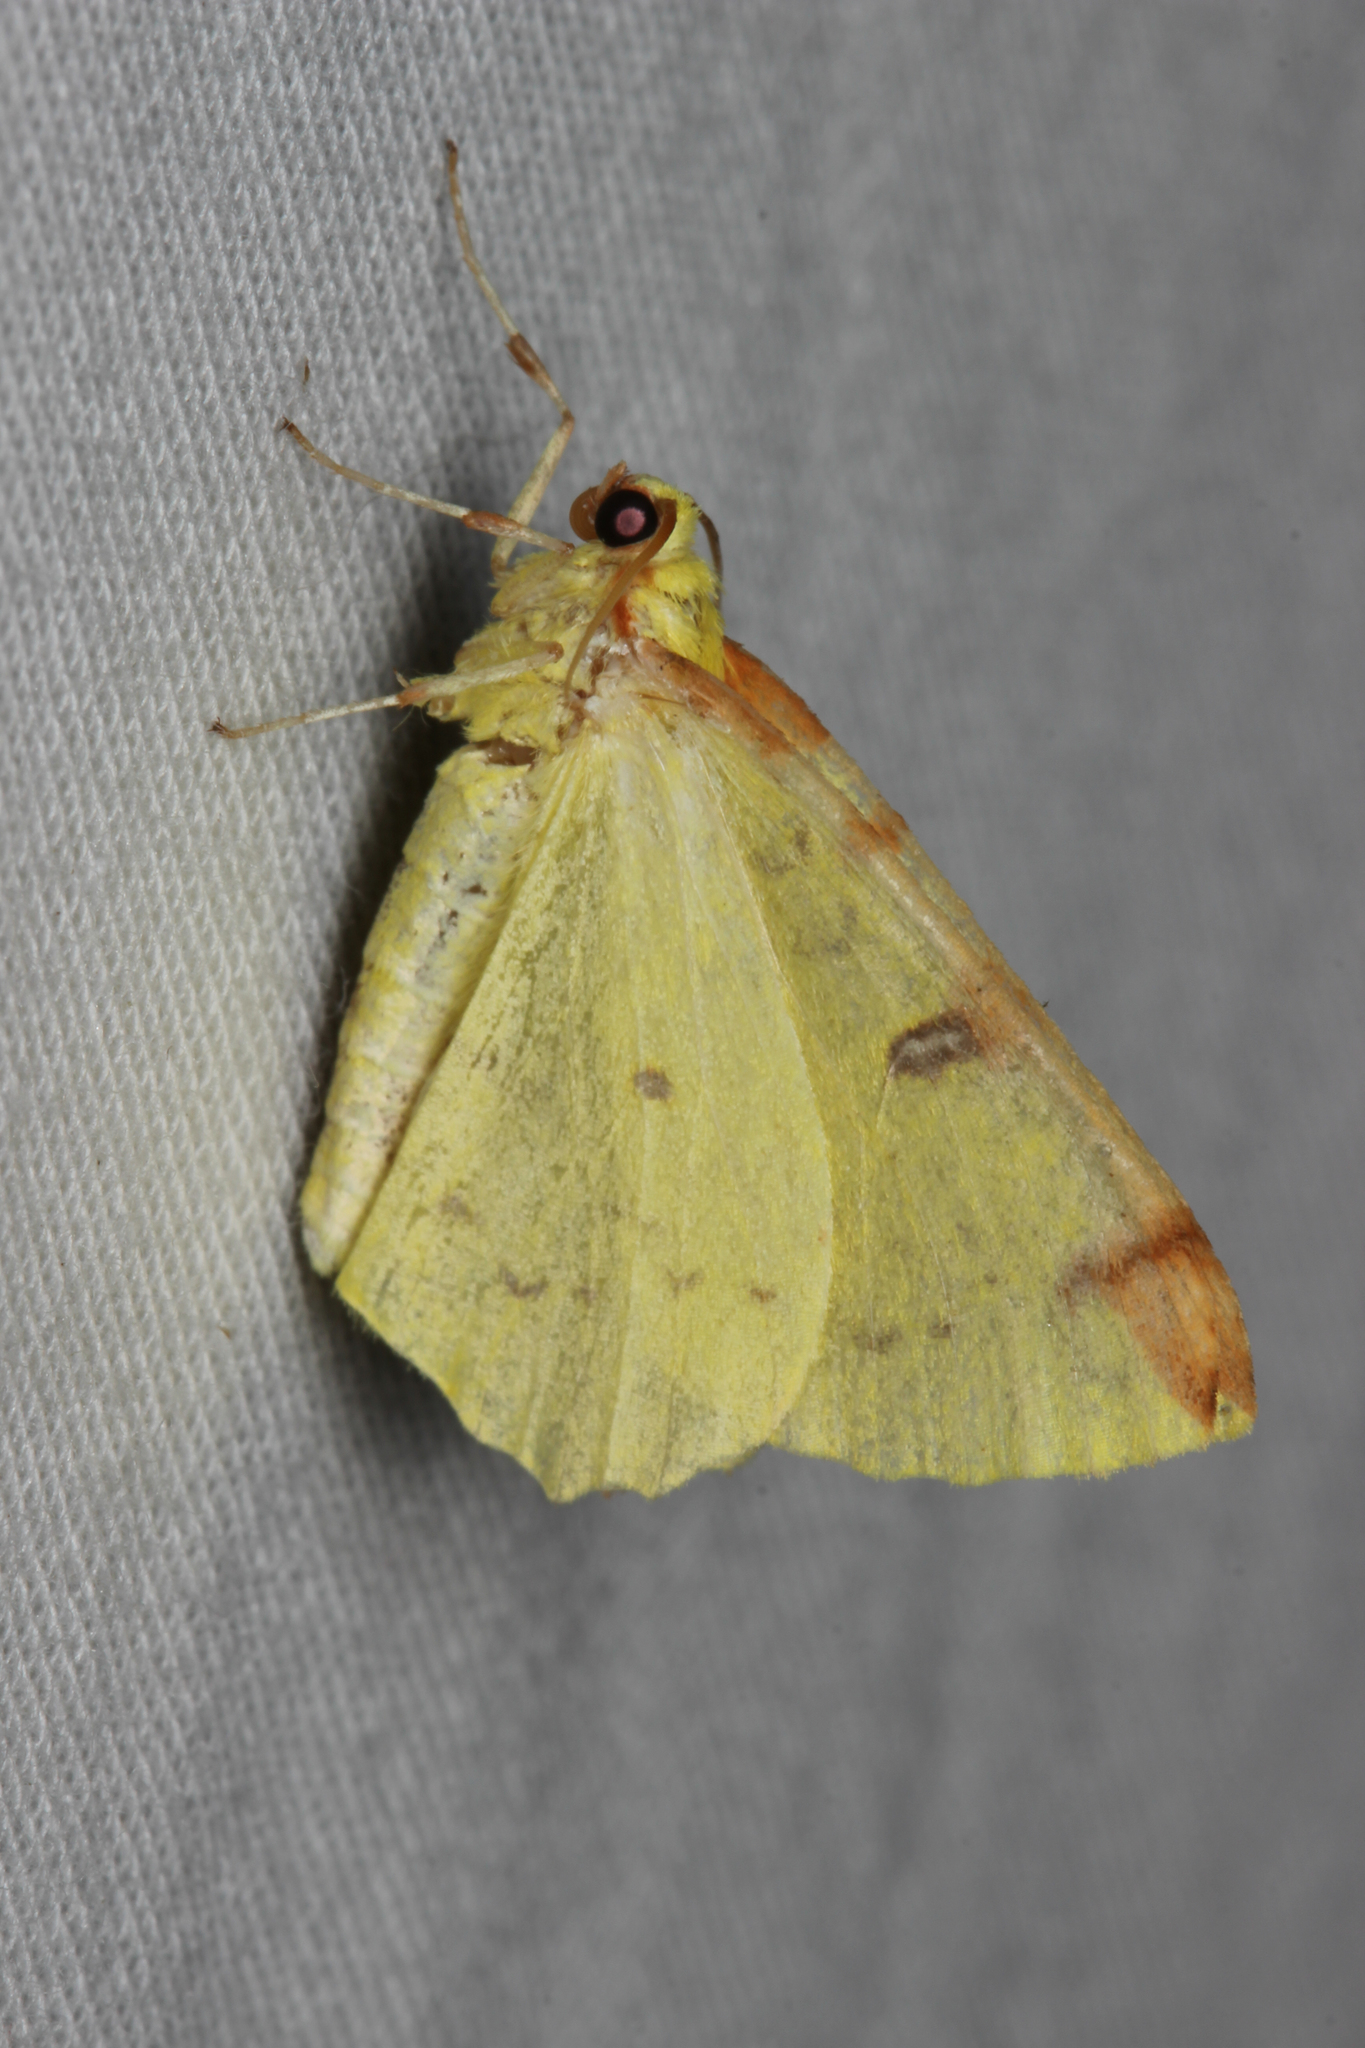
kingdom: Animalia
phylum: Arthropoda
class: Insecta
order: Lepidoptera
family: Geometridae
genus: Opisthograptis
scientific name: Opisthograptis luteolata
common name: Brimstone moth
